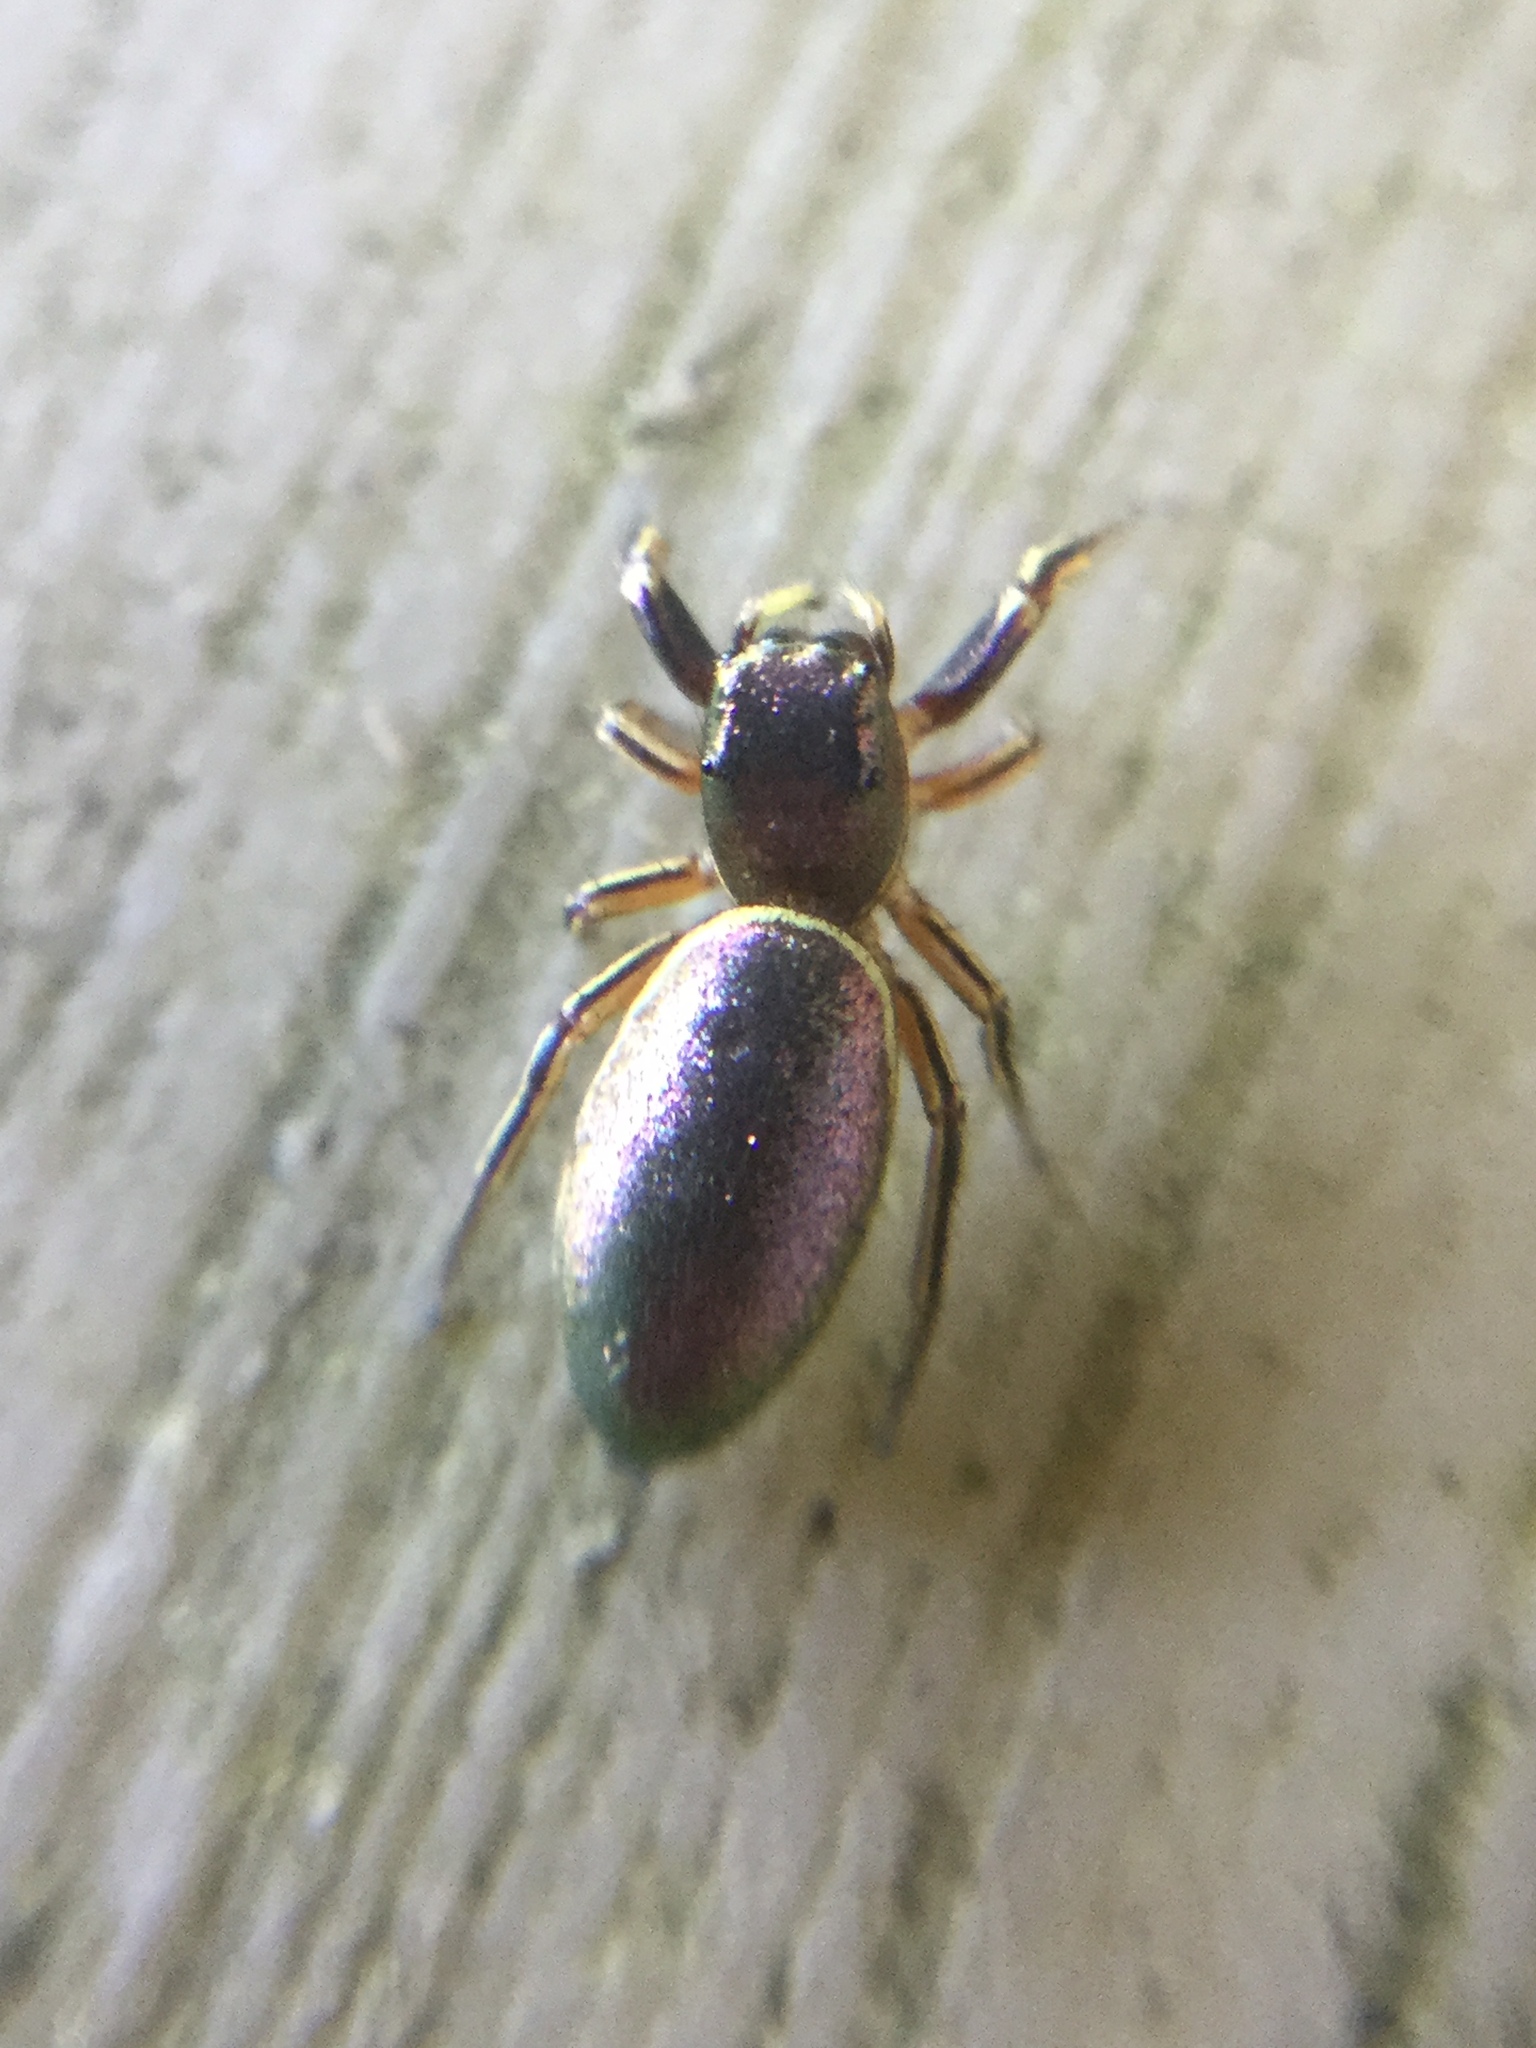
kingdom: Animalia
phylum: Arthropoda
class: Arachnida
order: Araneae
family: Salticidae
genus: Tutelina
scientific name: Tutelina elegans
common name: Thin-spined jumping spider
